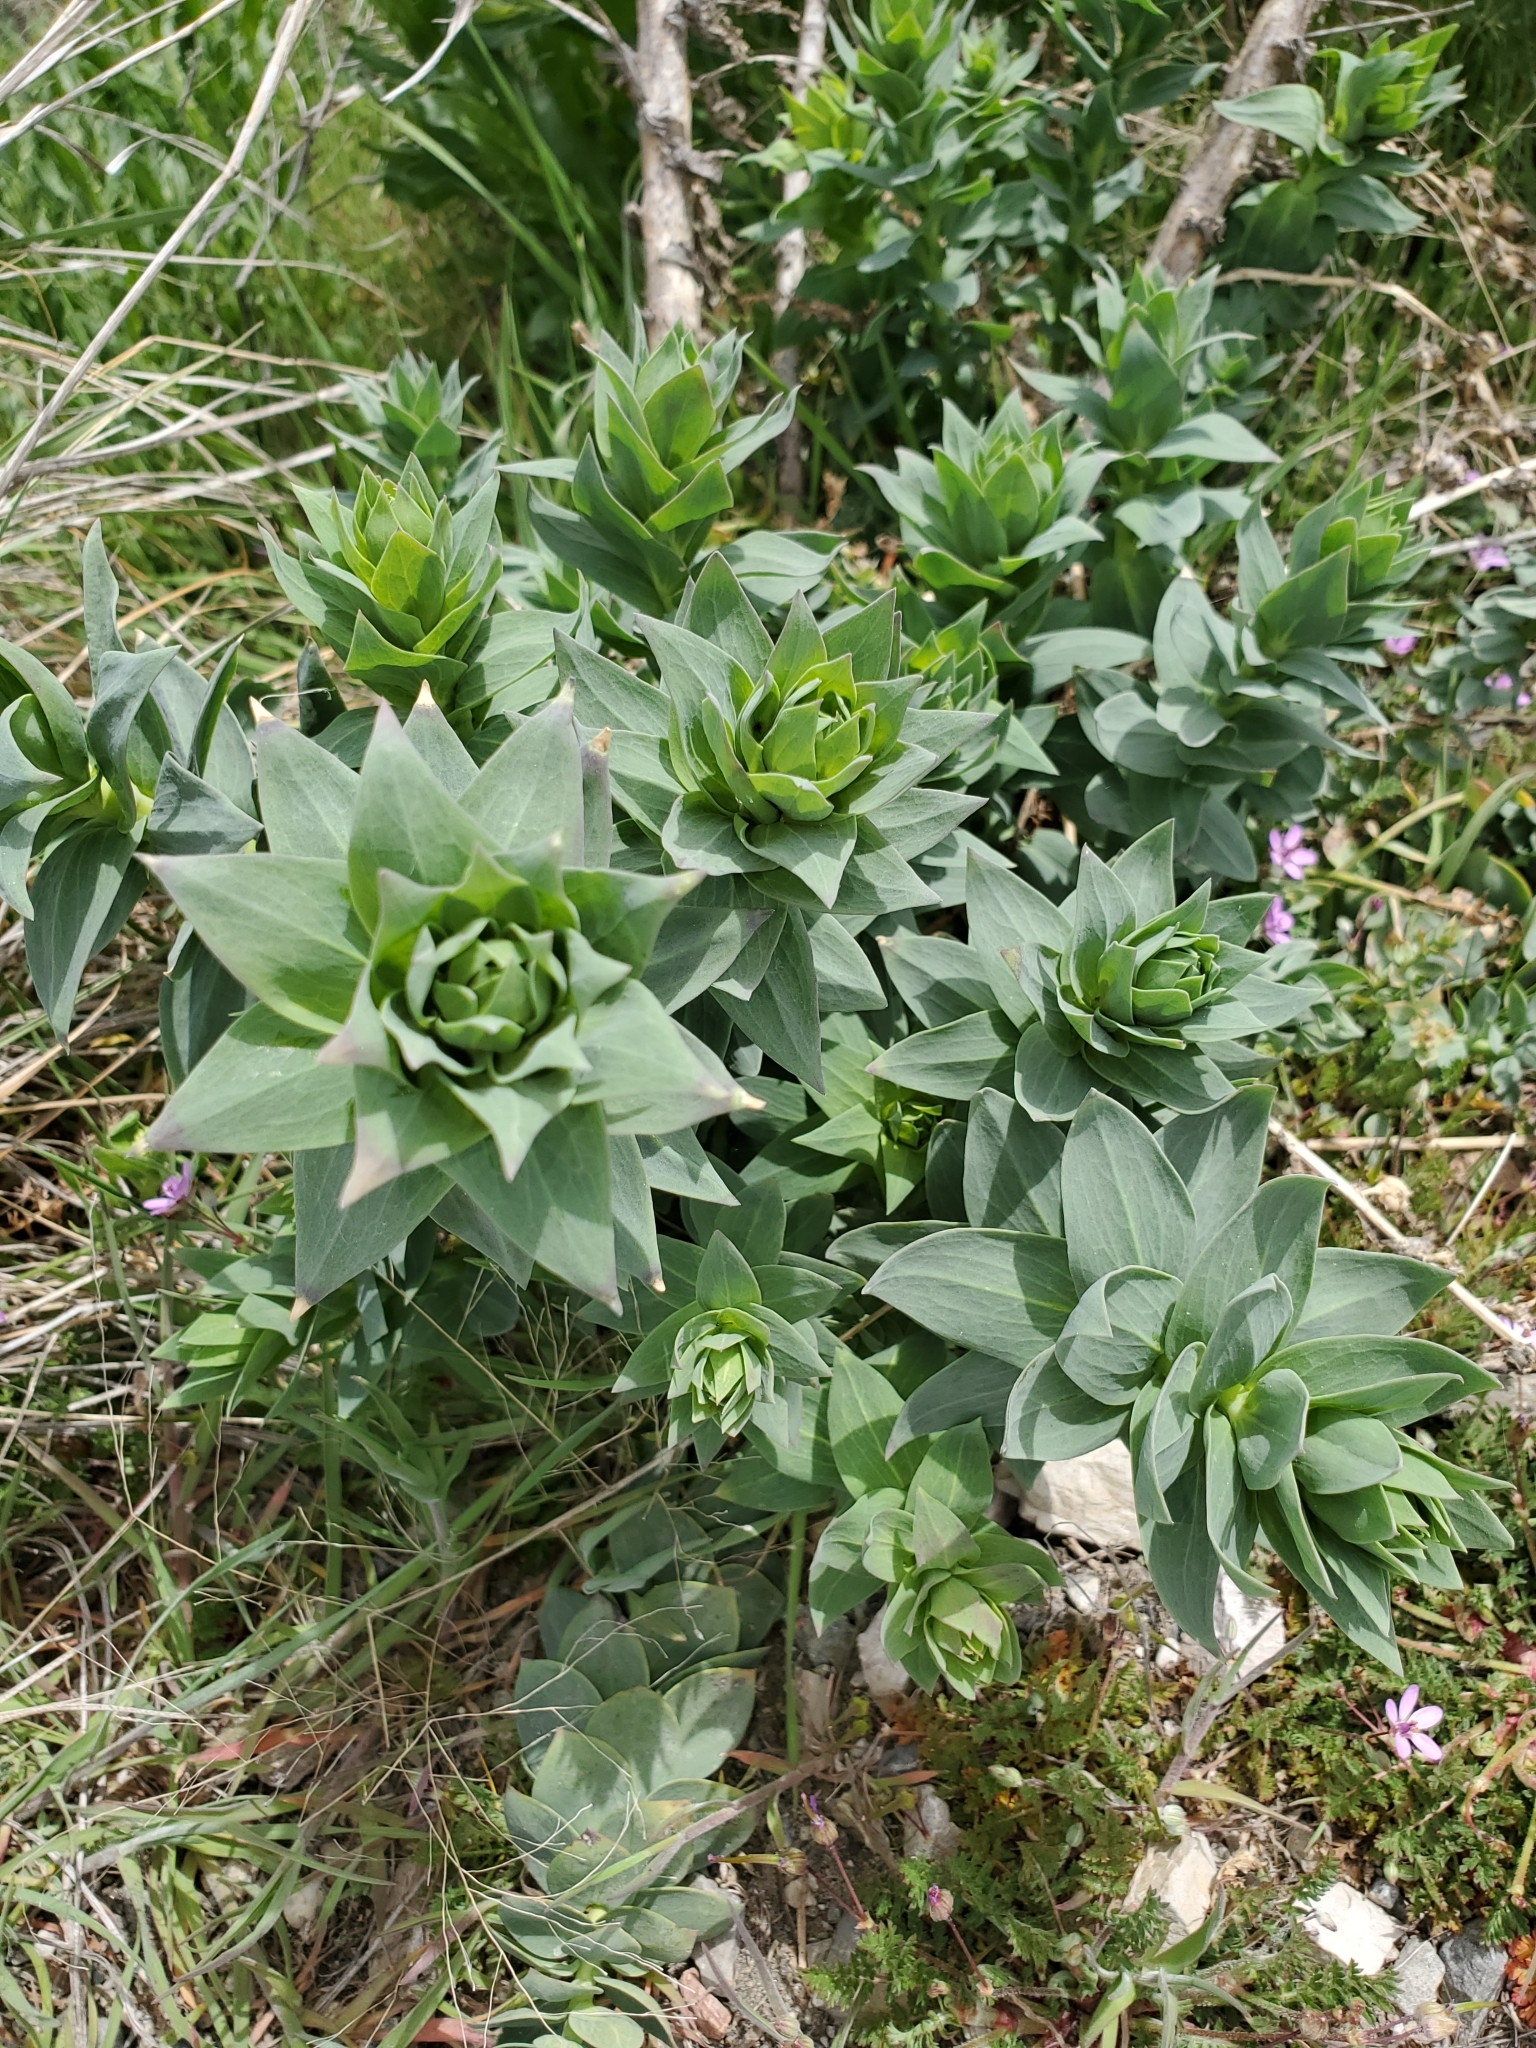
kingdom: Plantae
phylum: Tracheophyta
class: Magnoliopsida
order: Lamiales
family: Plantaginaceae
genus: Linaria
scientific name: Linaria dalmatica
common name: Dalmatian toadflax
